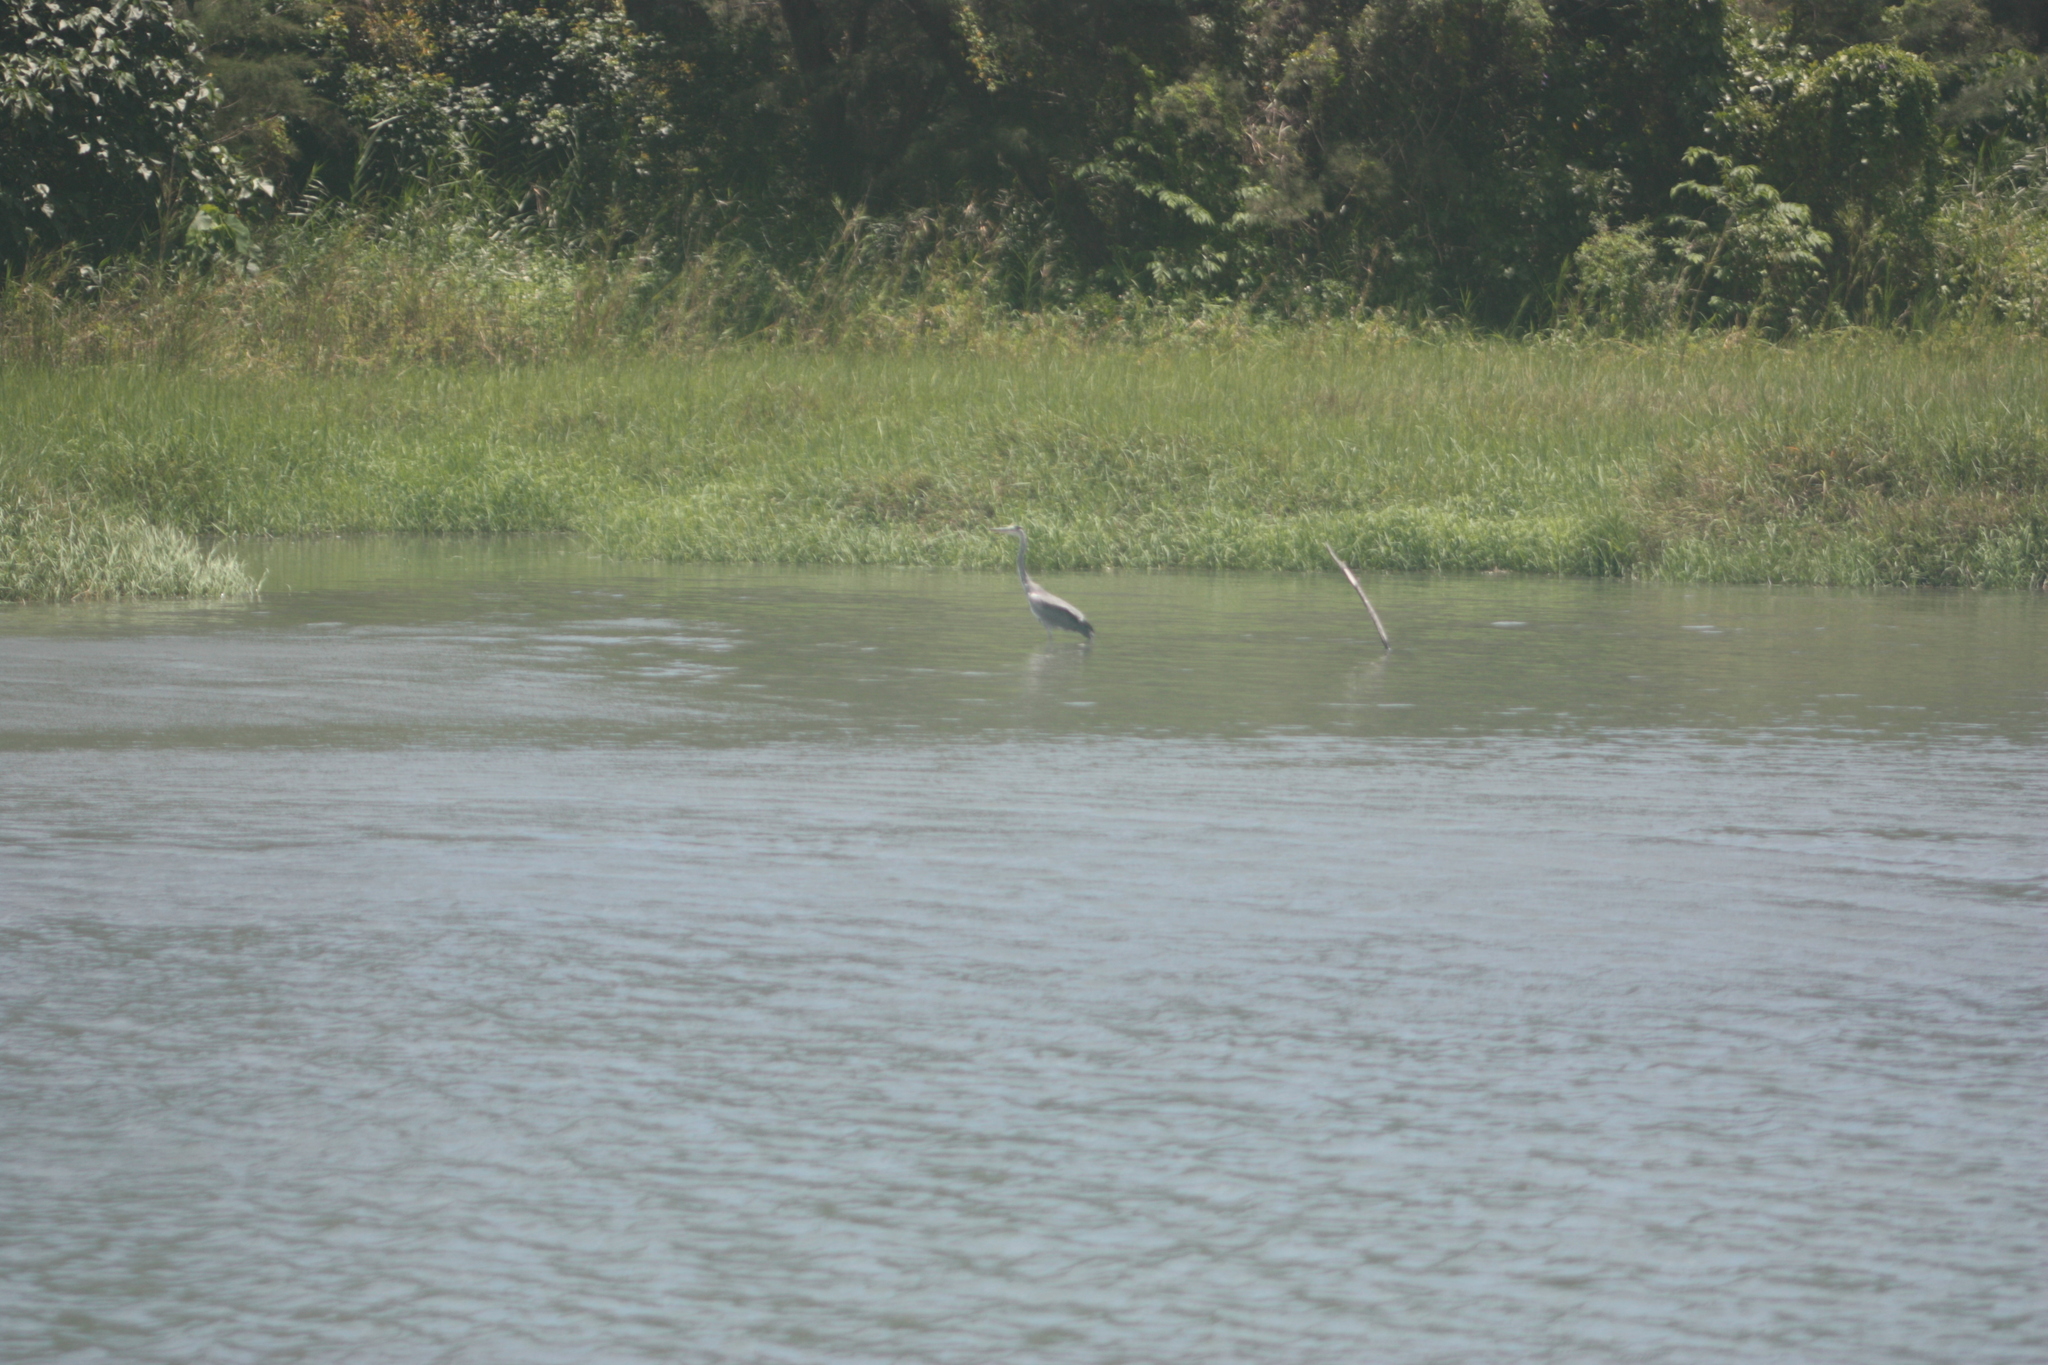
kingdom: Animalia
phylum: Chordata
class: Aves
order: Pelecaniformes
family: Ardeidae
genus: Ardea
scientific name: Ardea cinerea
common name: Grey heron
